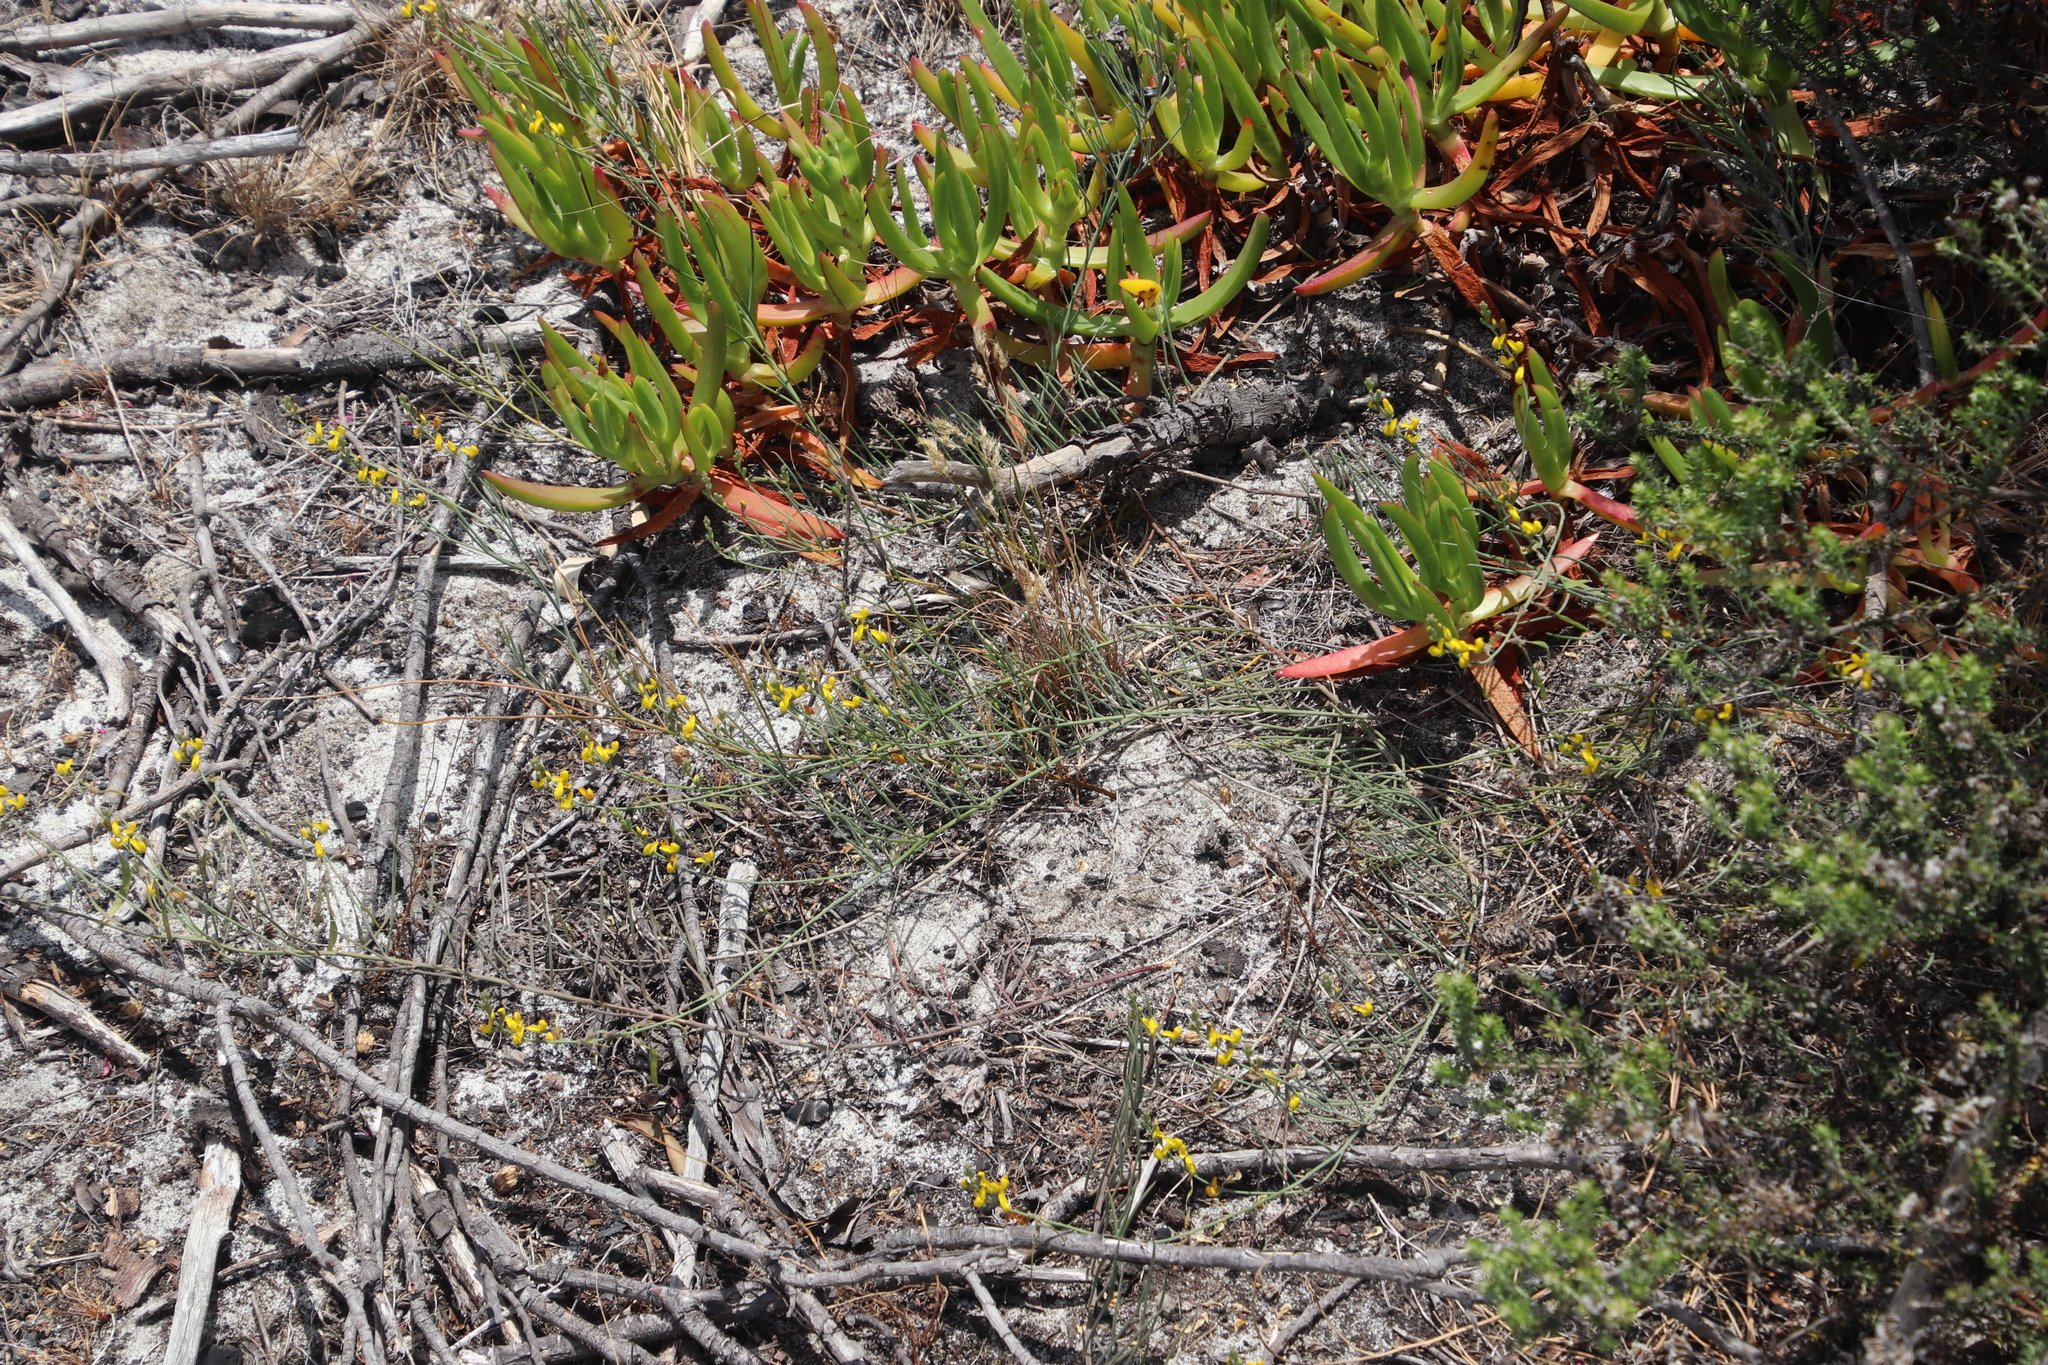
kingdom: Plantae
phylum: Tracheophyta
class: Magnoliopsida
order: Fabales
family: Fabaceae
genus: Lebeckia
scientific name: Lebeckia contaminata
